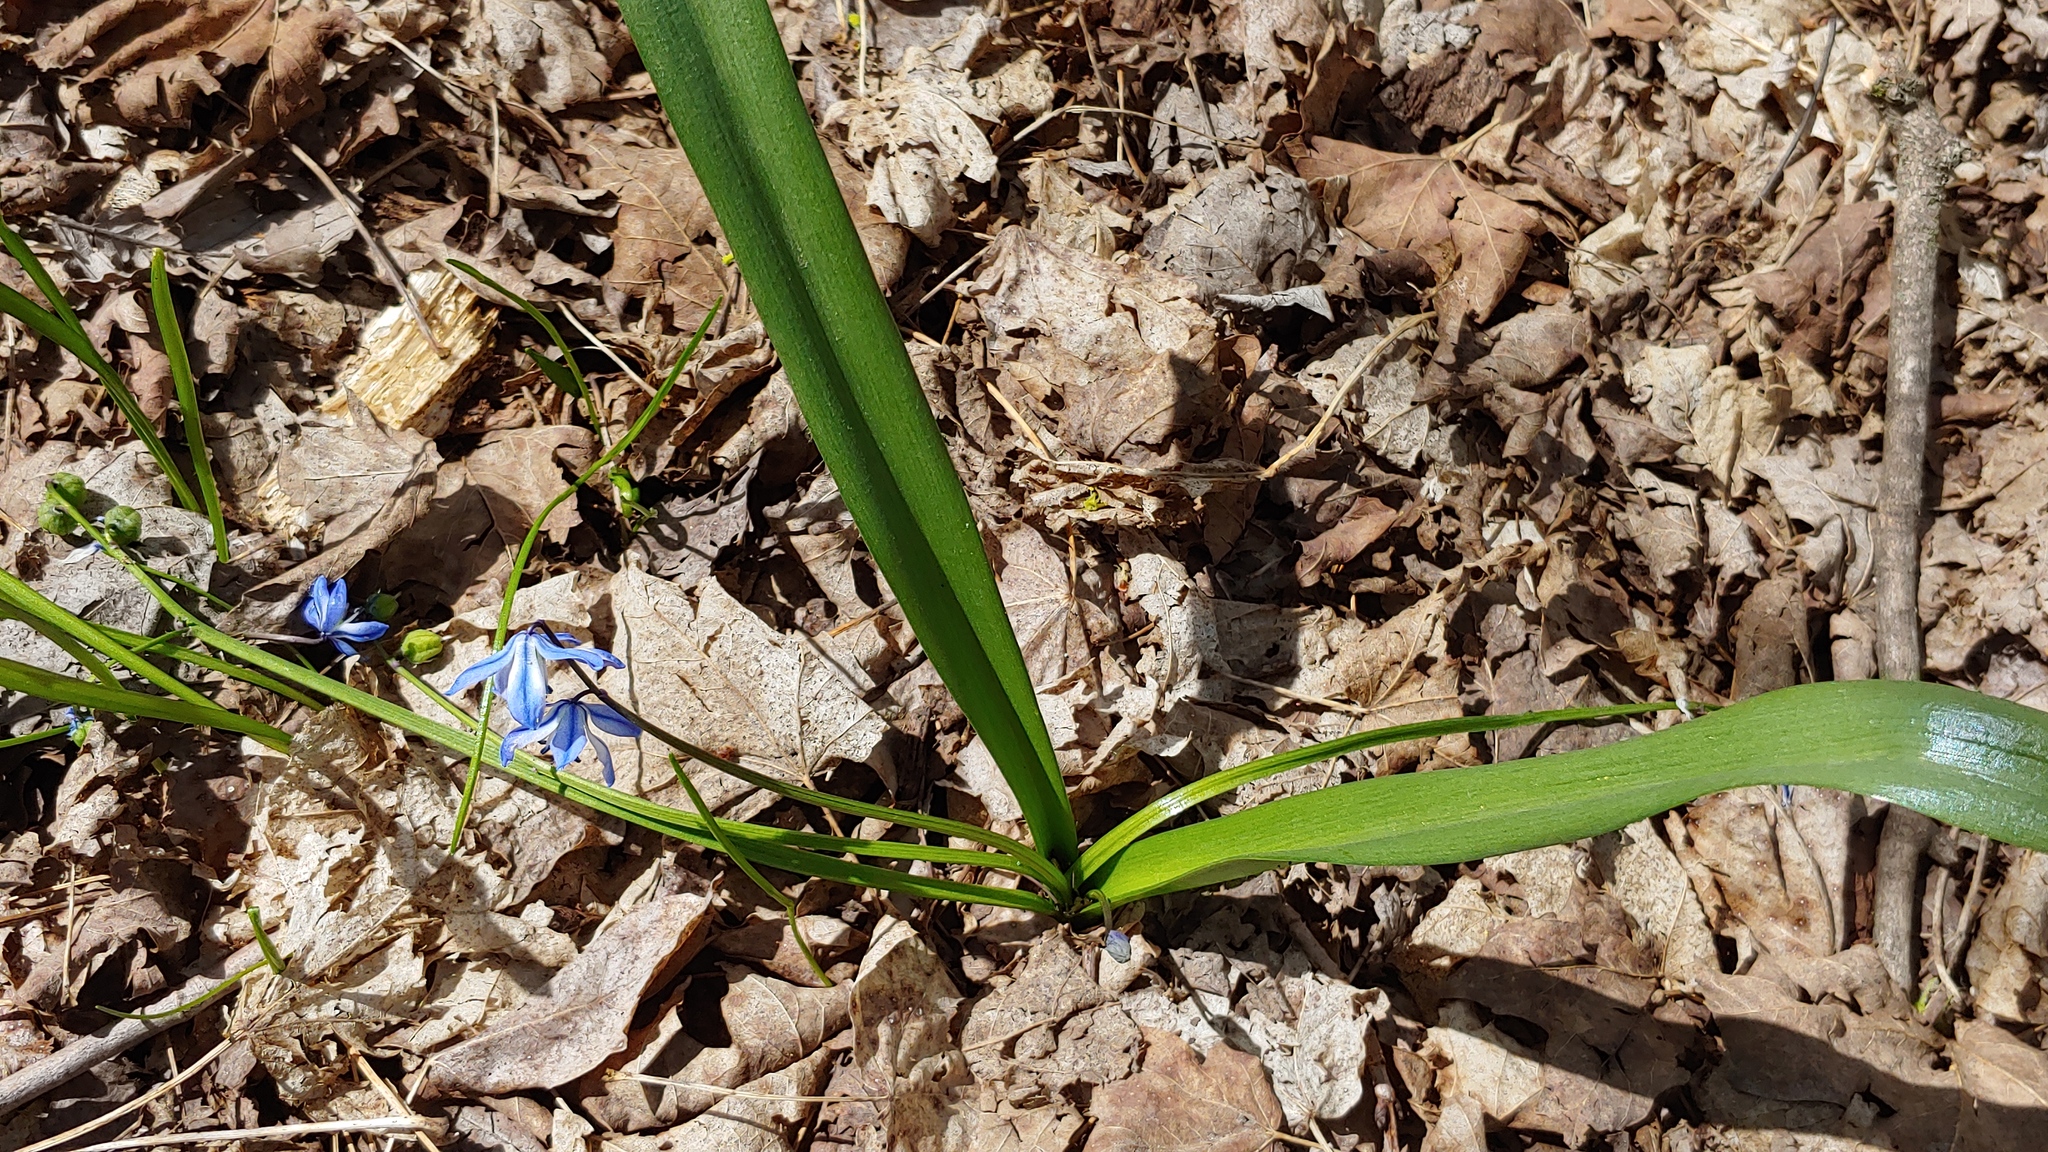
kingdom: Plantae
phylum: Tracheophyta
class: Liliopsida
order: Asparagales
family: Asparagaceae
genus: Scilla
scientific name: Scilla siberica
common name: Siberian squill
